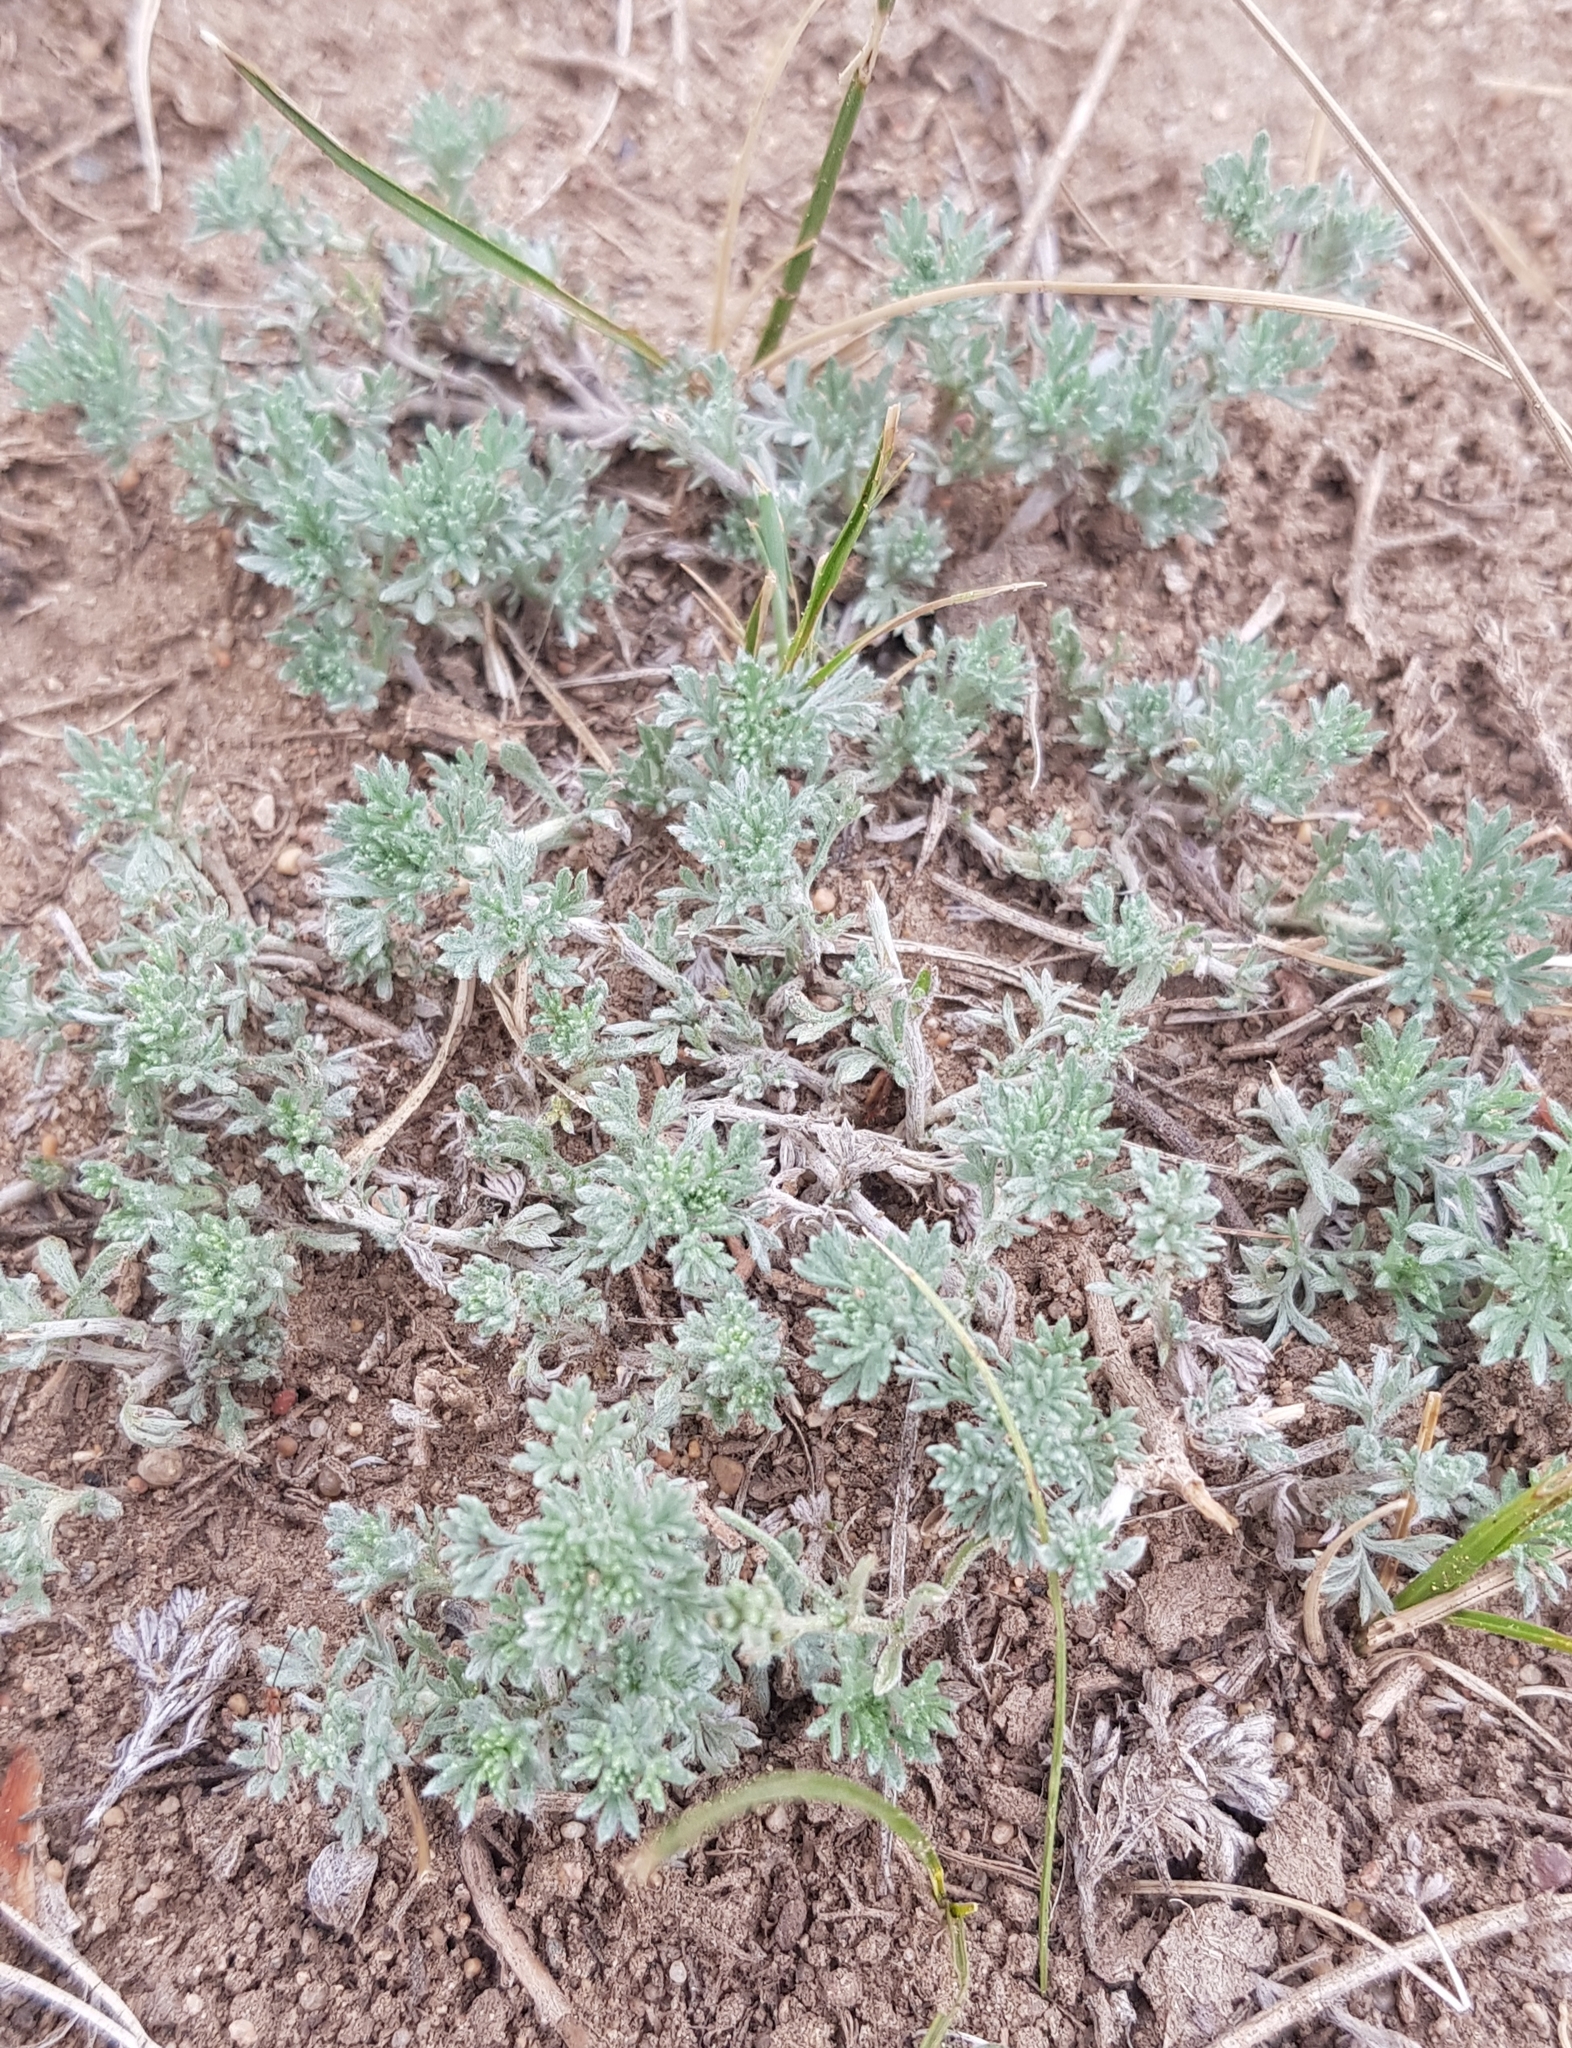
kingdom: Plantae
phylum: Tracheophyta
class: Magnoliopsida
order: Asterales
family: Asteraceae
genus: Artemisia
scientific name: Artemisia frigida
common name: Prairie sagewort
